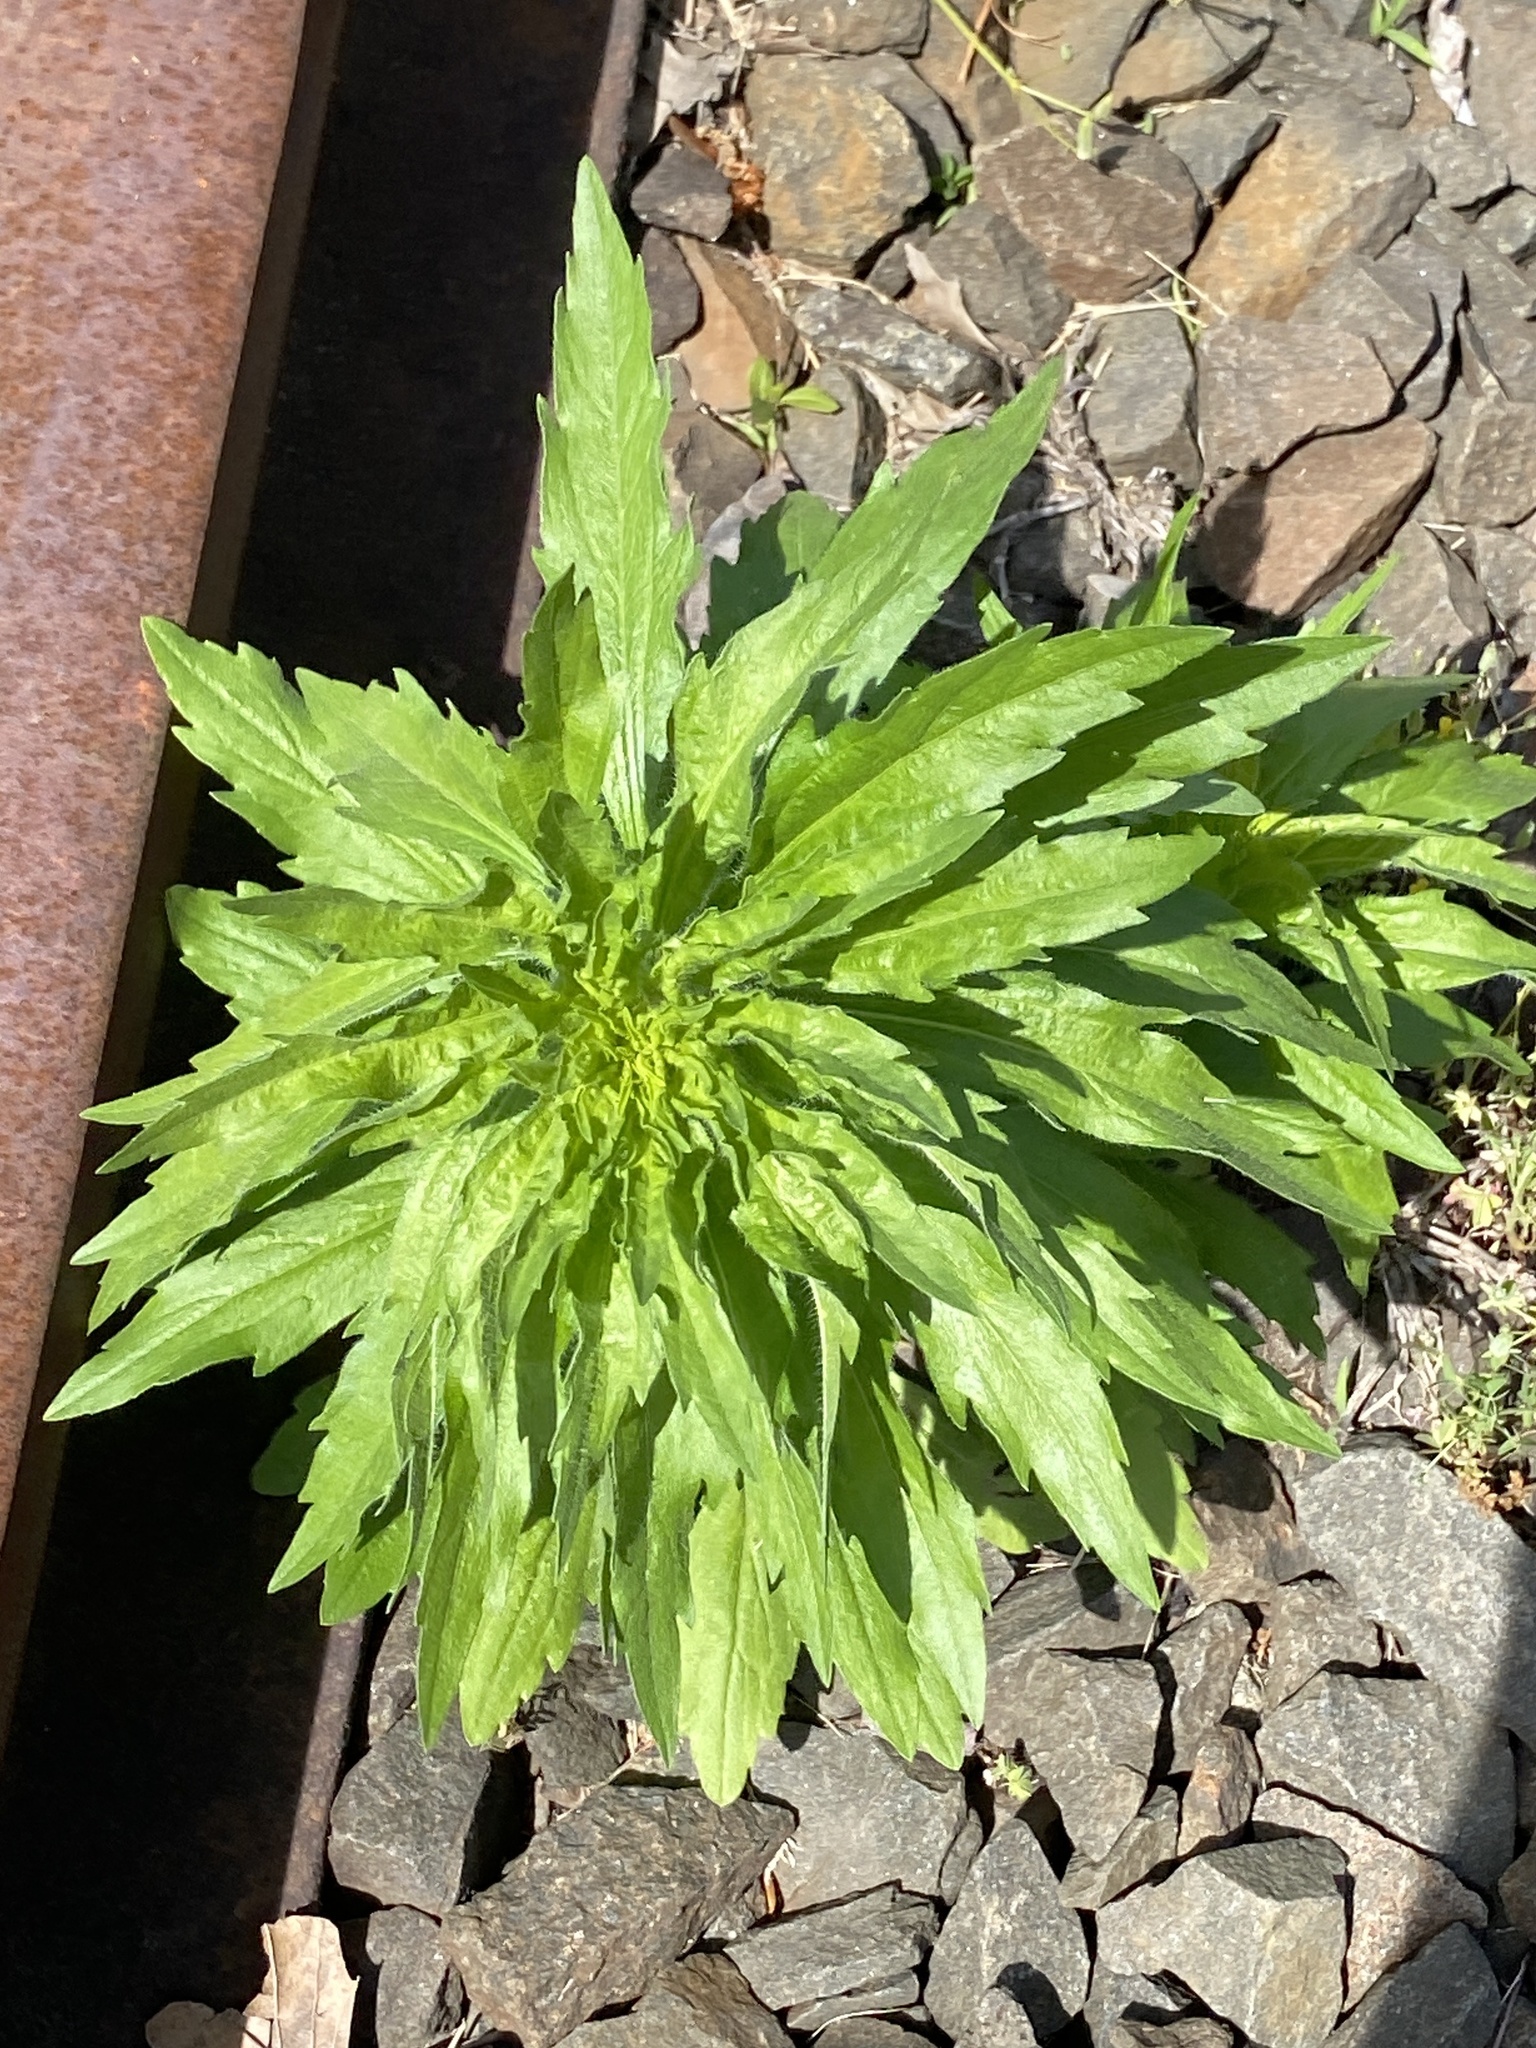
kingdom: Plantae
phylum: Tracheophyta
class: Magnoliopsida
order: Asterales
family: Asteraceae
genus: Erigeron
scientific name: Erigeron canadensis
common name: Canadian fleabane
